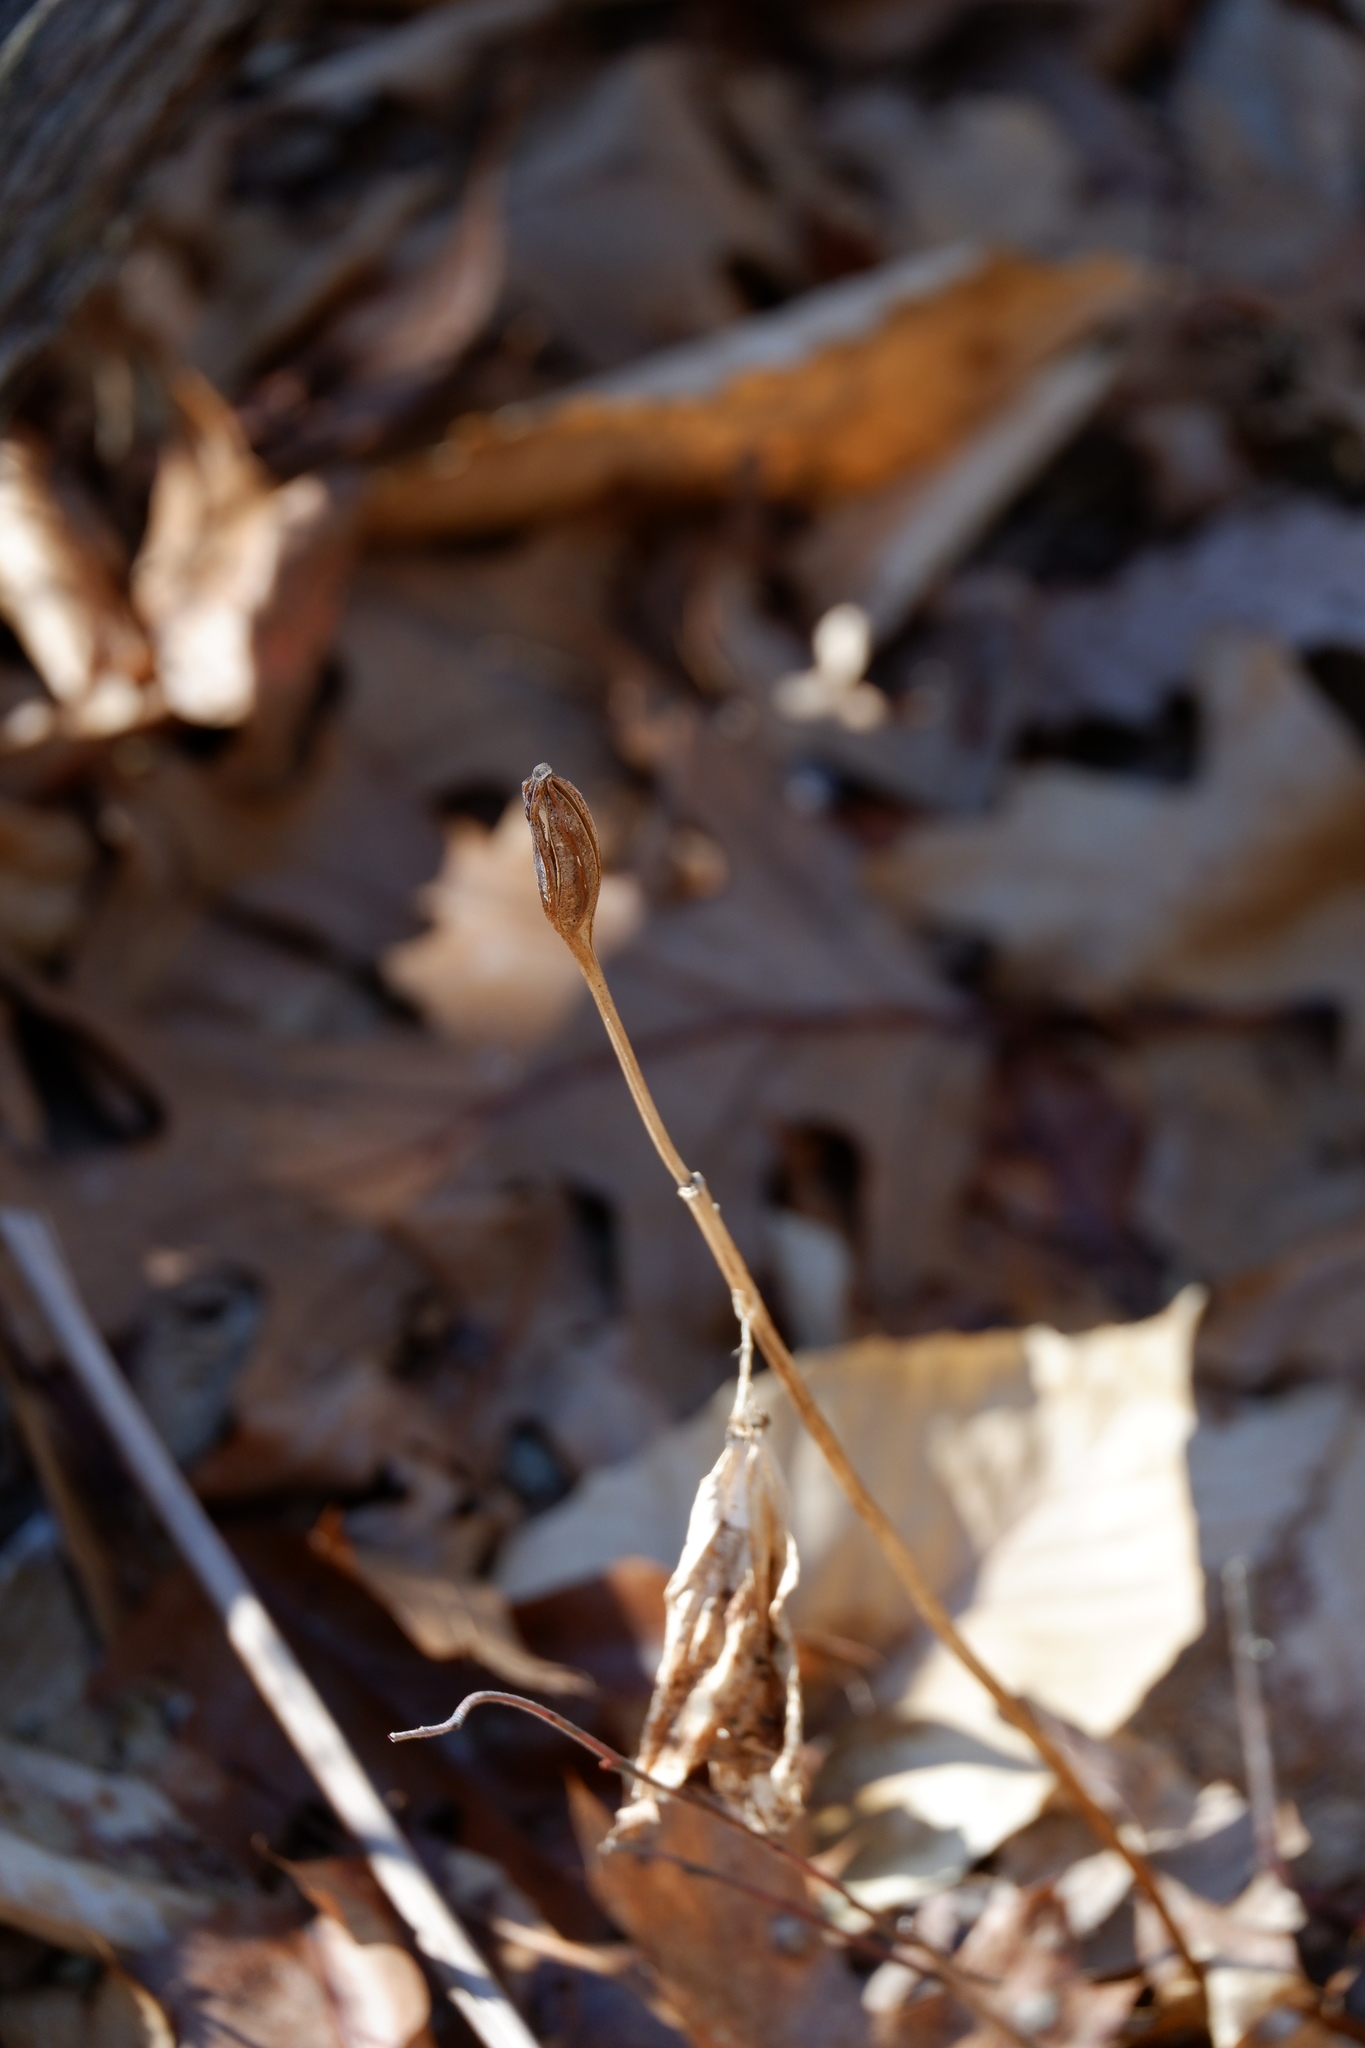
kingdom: Plantae
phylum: Tracheophyta
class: Liliopsida
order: Asparagales
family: Orchidaceae
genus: Cypripedium
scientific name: Cypripedium acaule
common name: Pink lady's-slipper
